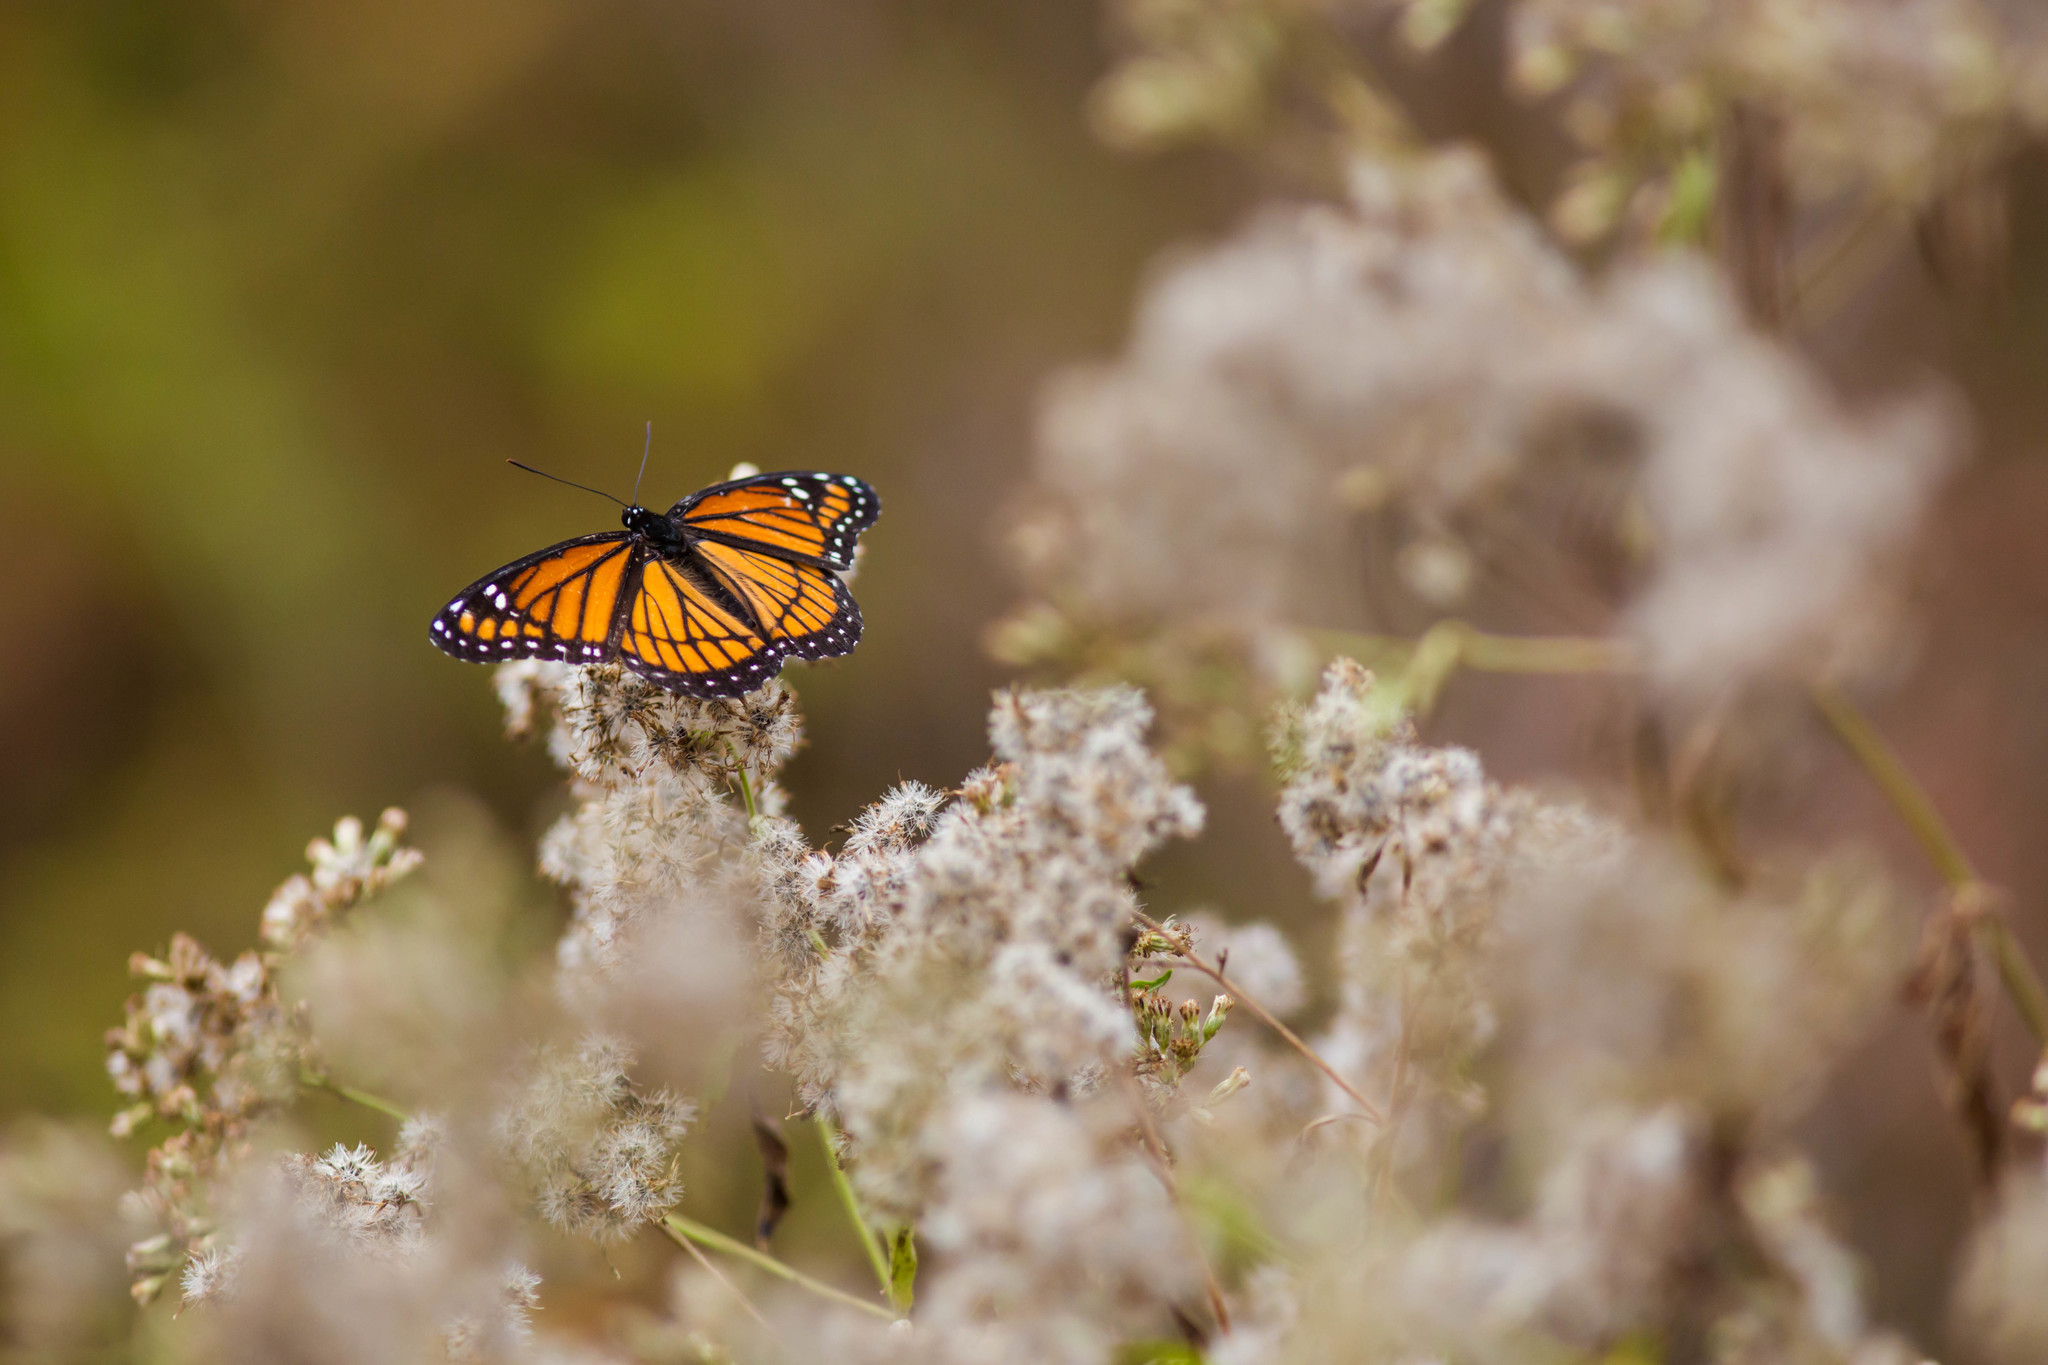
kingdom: Animalia
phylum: Arthropoda
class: Insecta
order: Lepidoptera
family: Nymphalidae
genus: Limenitis
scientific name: Limenitis archippus
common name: Viceroy
